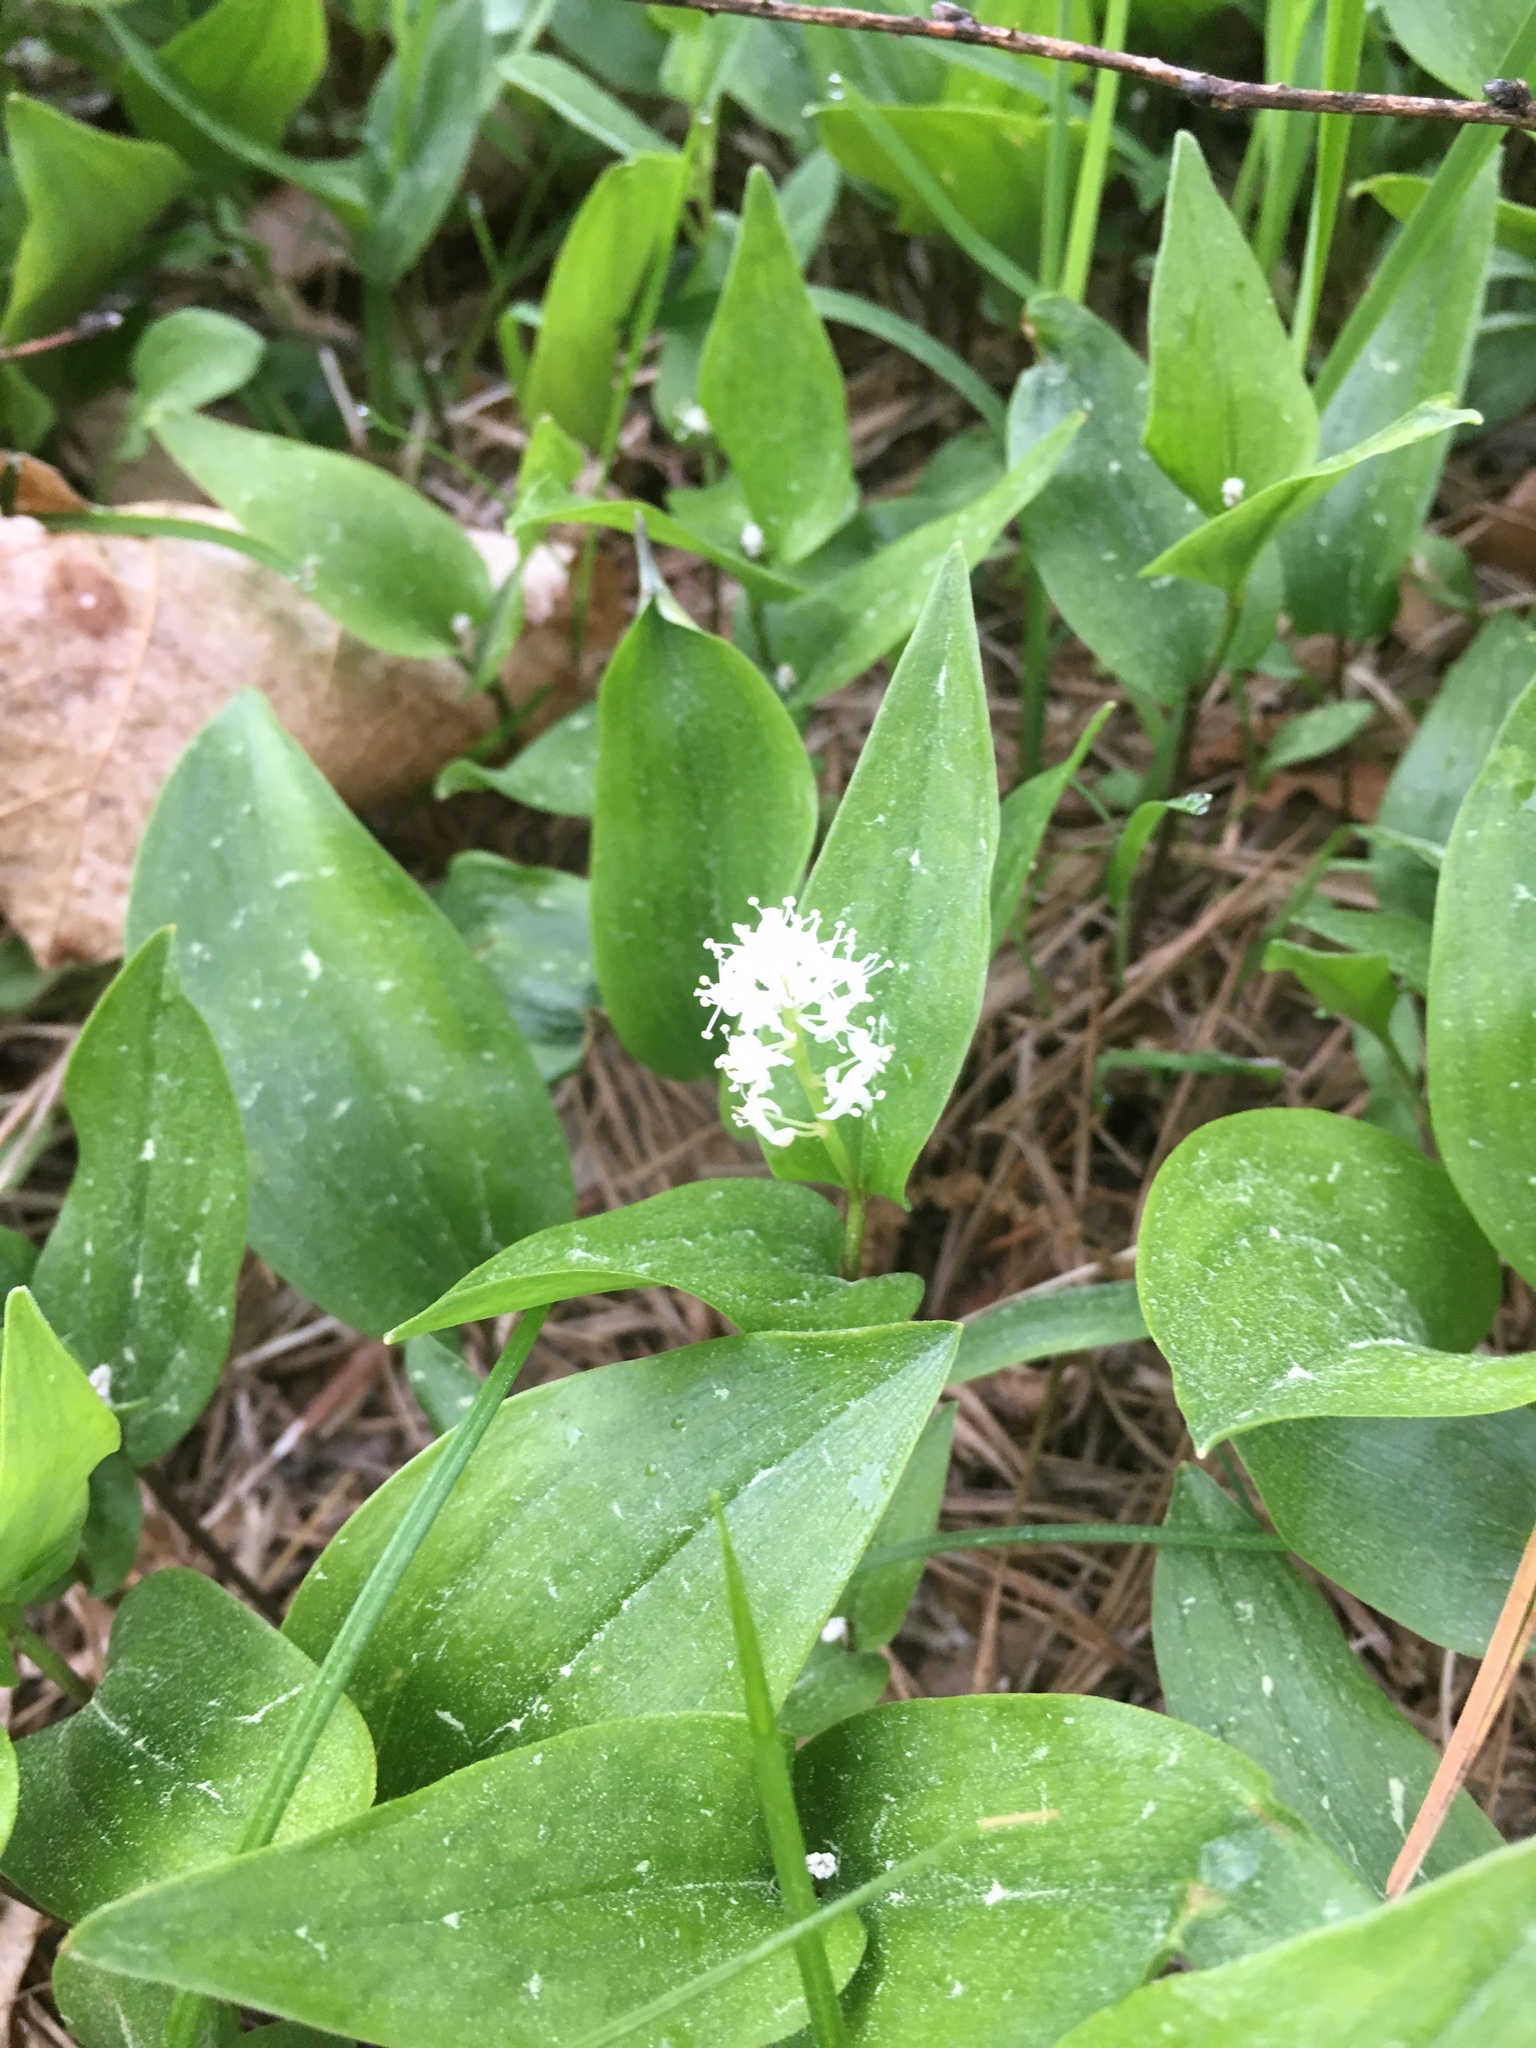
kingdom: Plantae
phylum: Tracheophyta
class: Liliopsida
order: Asparagales
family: Asparagaceae
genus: Maianthemum
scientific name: Maianthemum canadense
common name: False lily-of-the-valley
